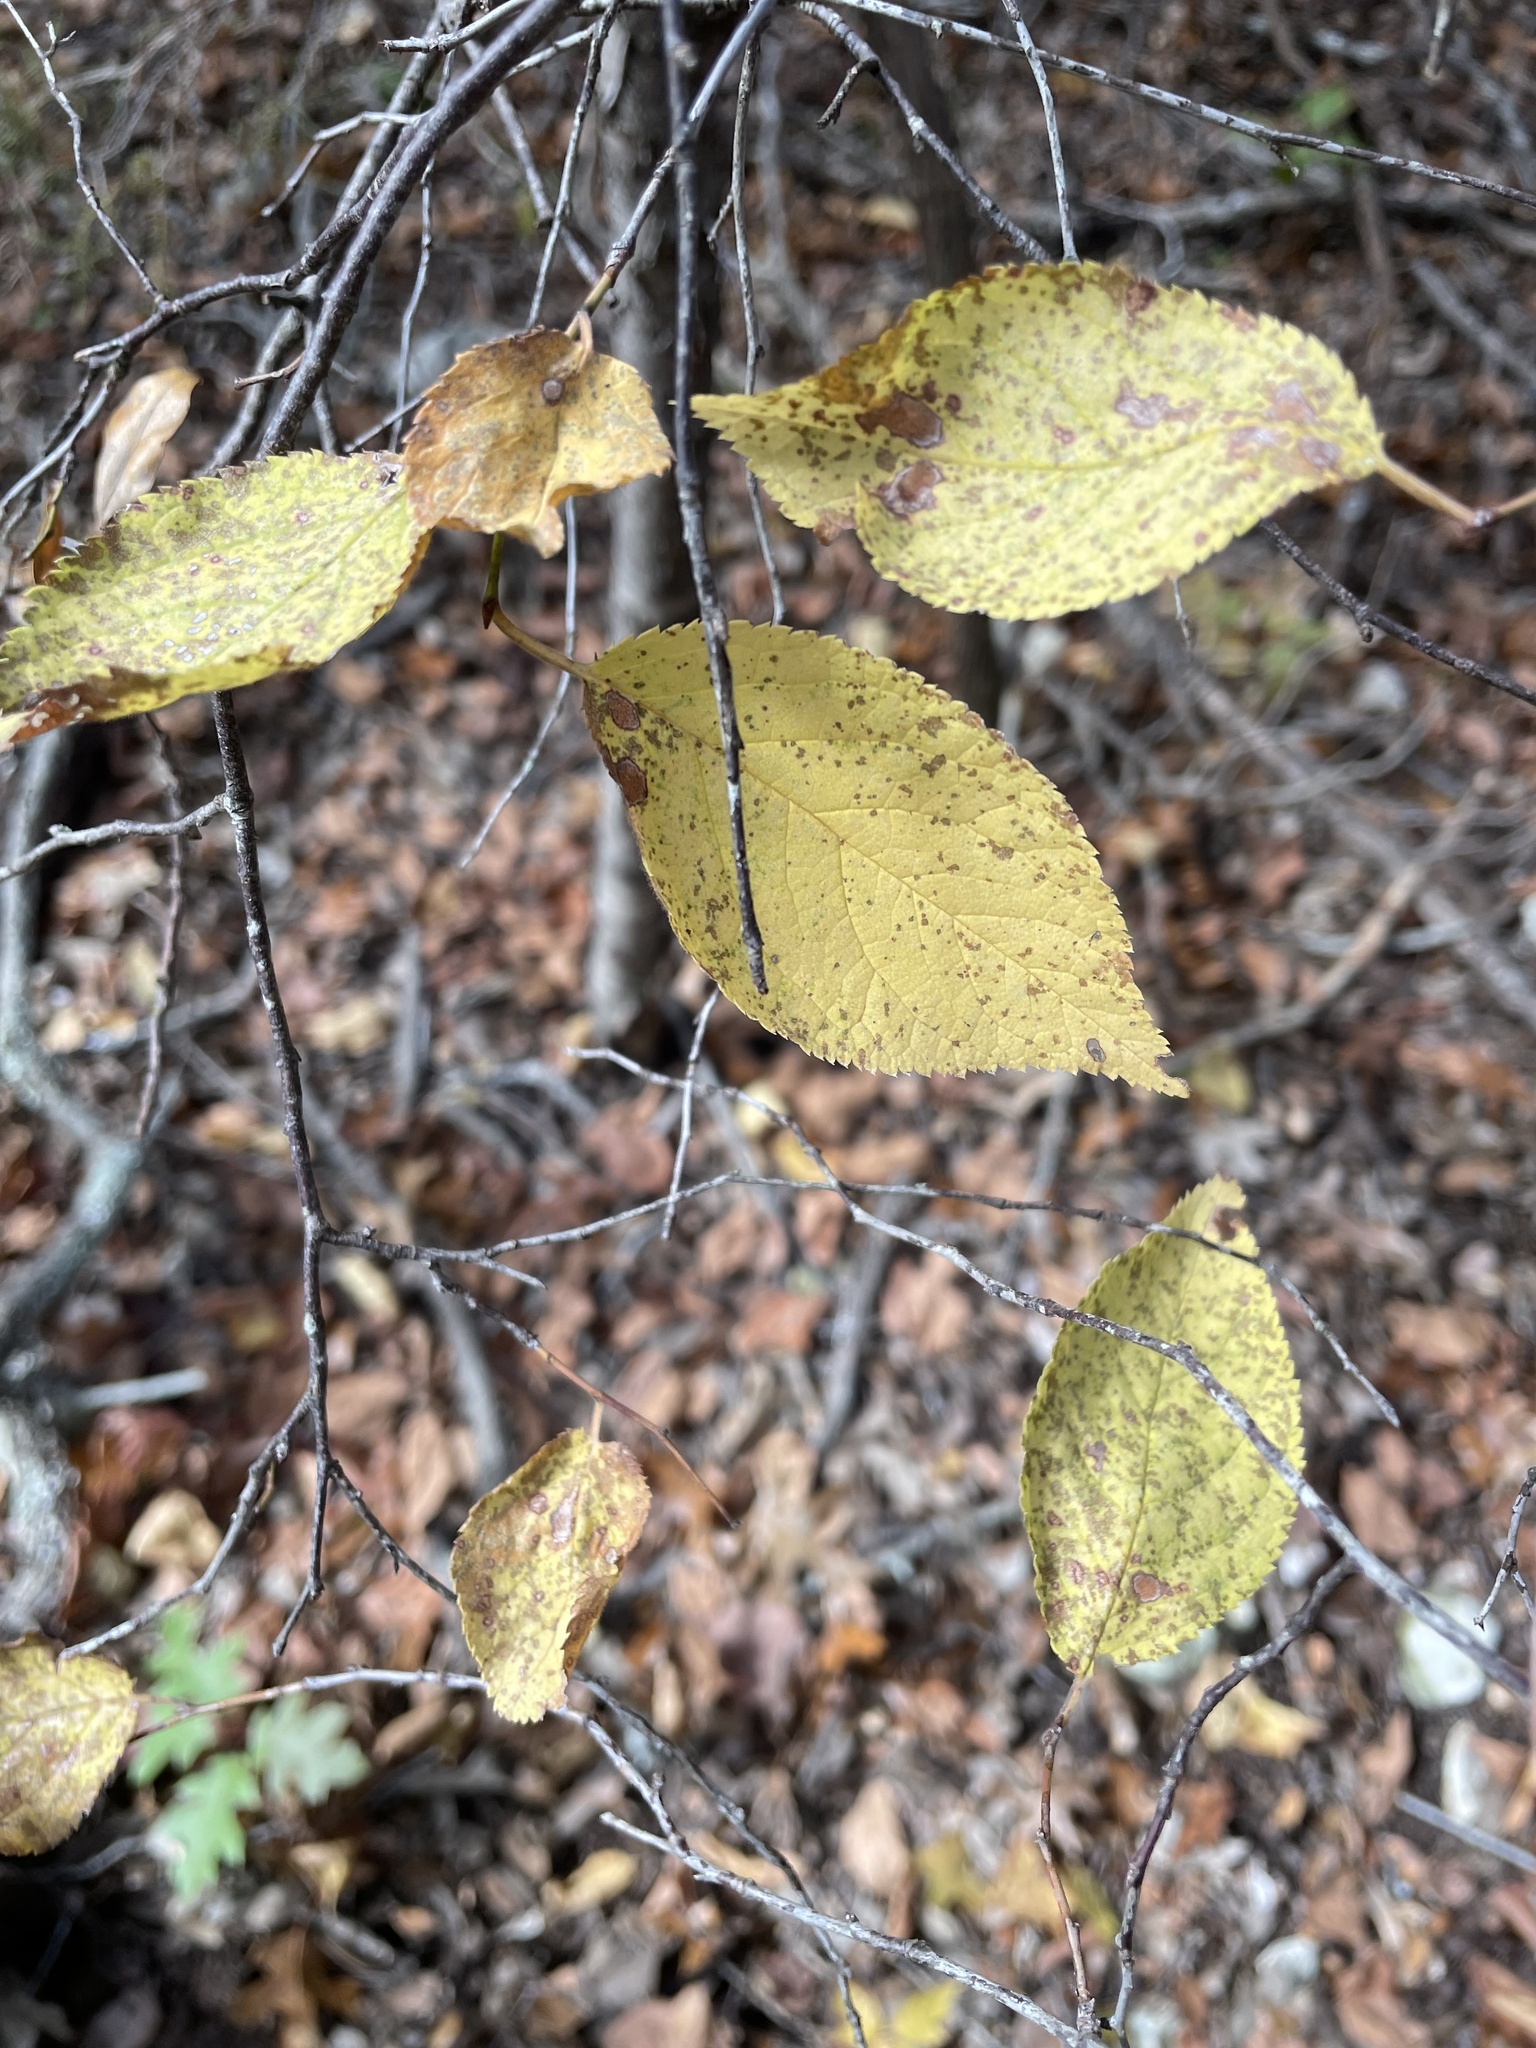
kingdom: Plantae
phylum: Tracheophyta
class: Magnoliopsida
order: Rosales
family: Rosaceae
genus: Prunus
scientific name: Prunus mexicana
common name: Mexican plum
